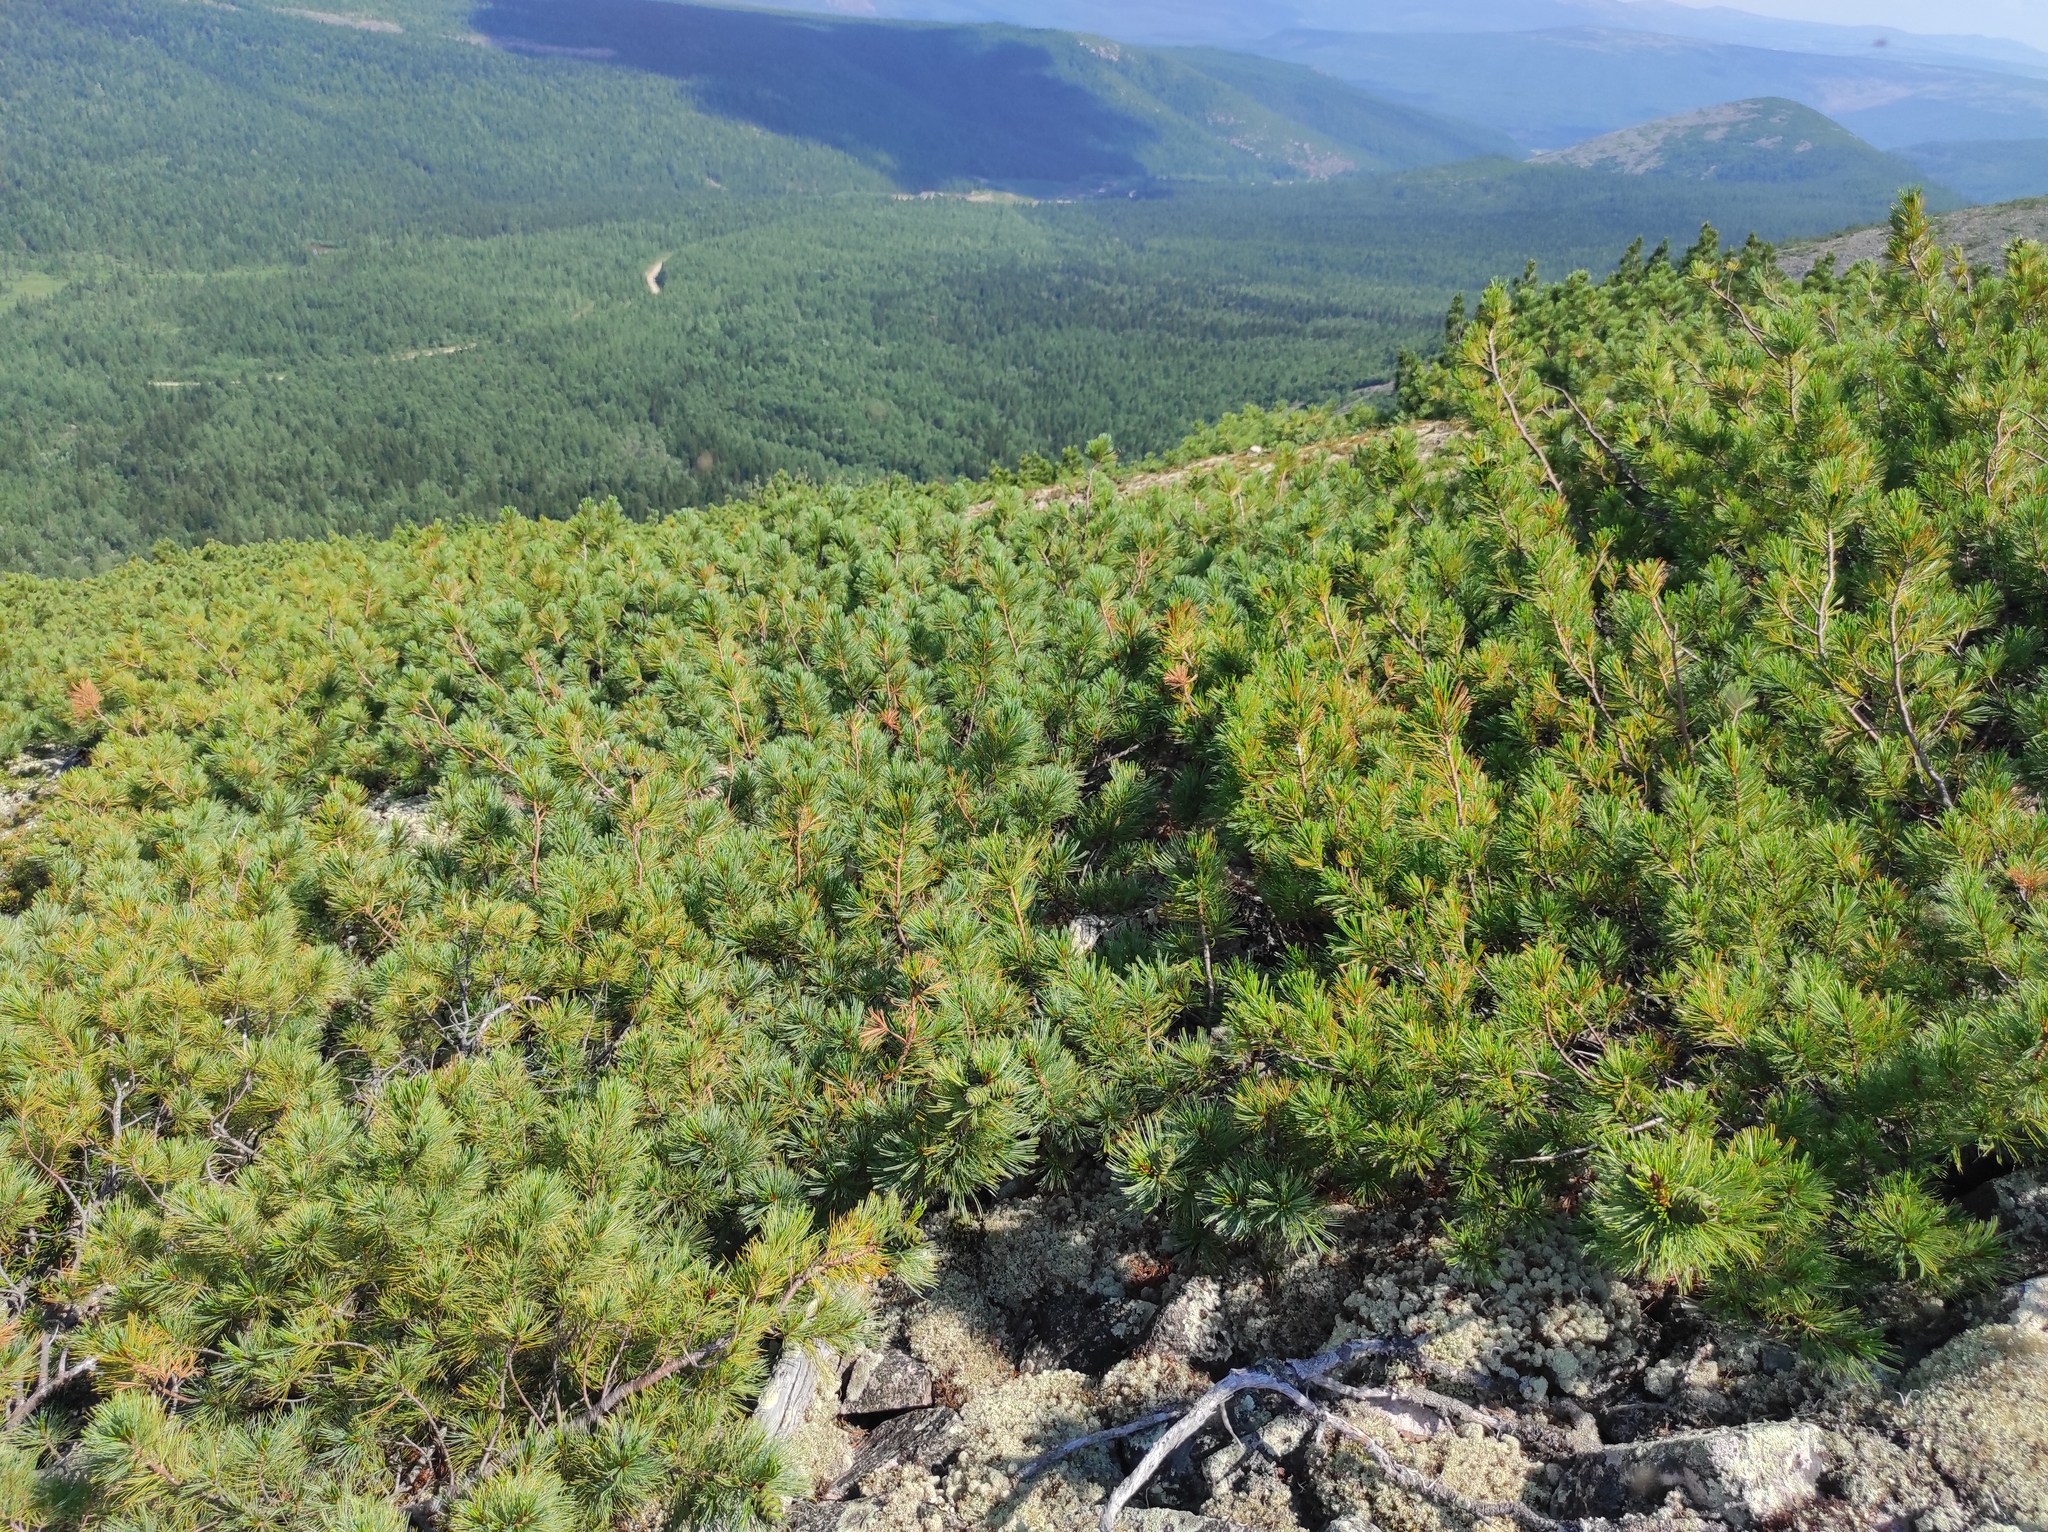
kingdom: Plantae
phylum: Tracheophyta
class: Pinopsida
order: Pinales
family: Pinaceae
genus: Pinus
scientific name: Pinus pumila
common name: Dwarf siberian pine
